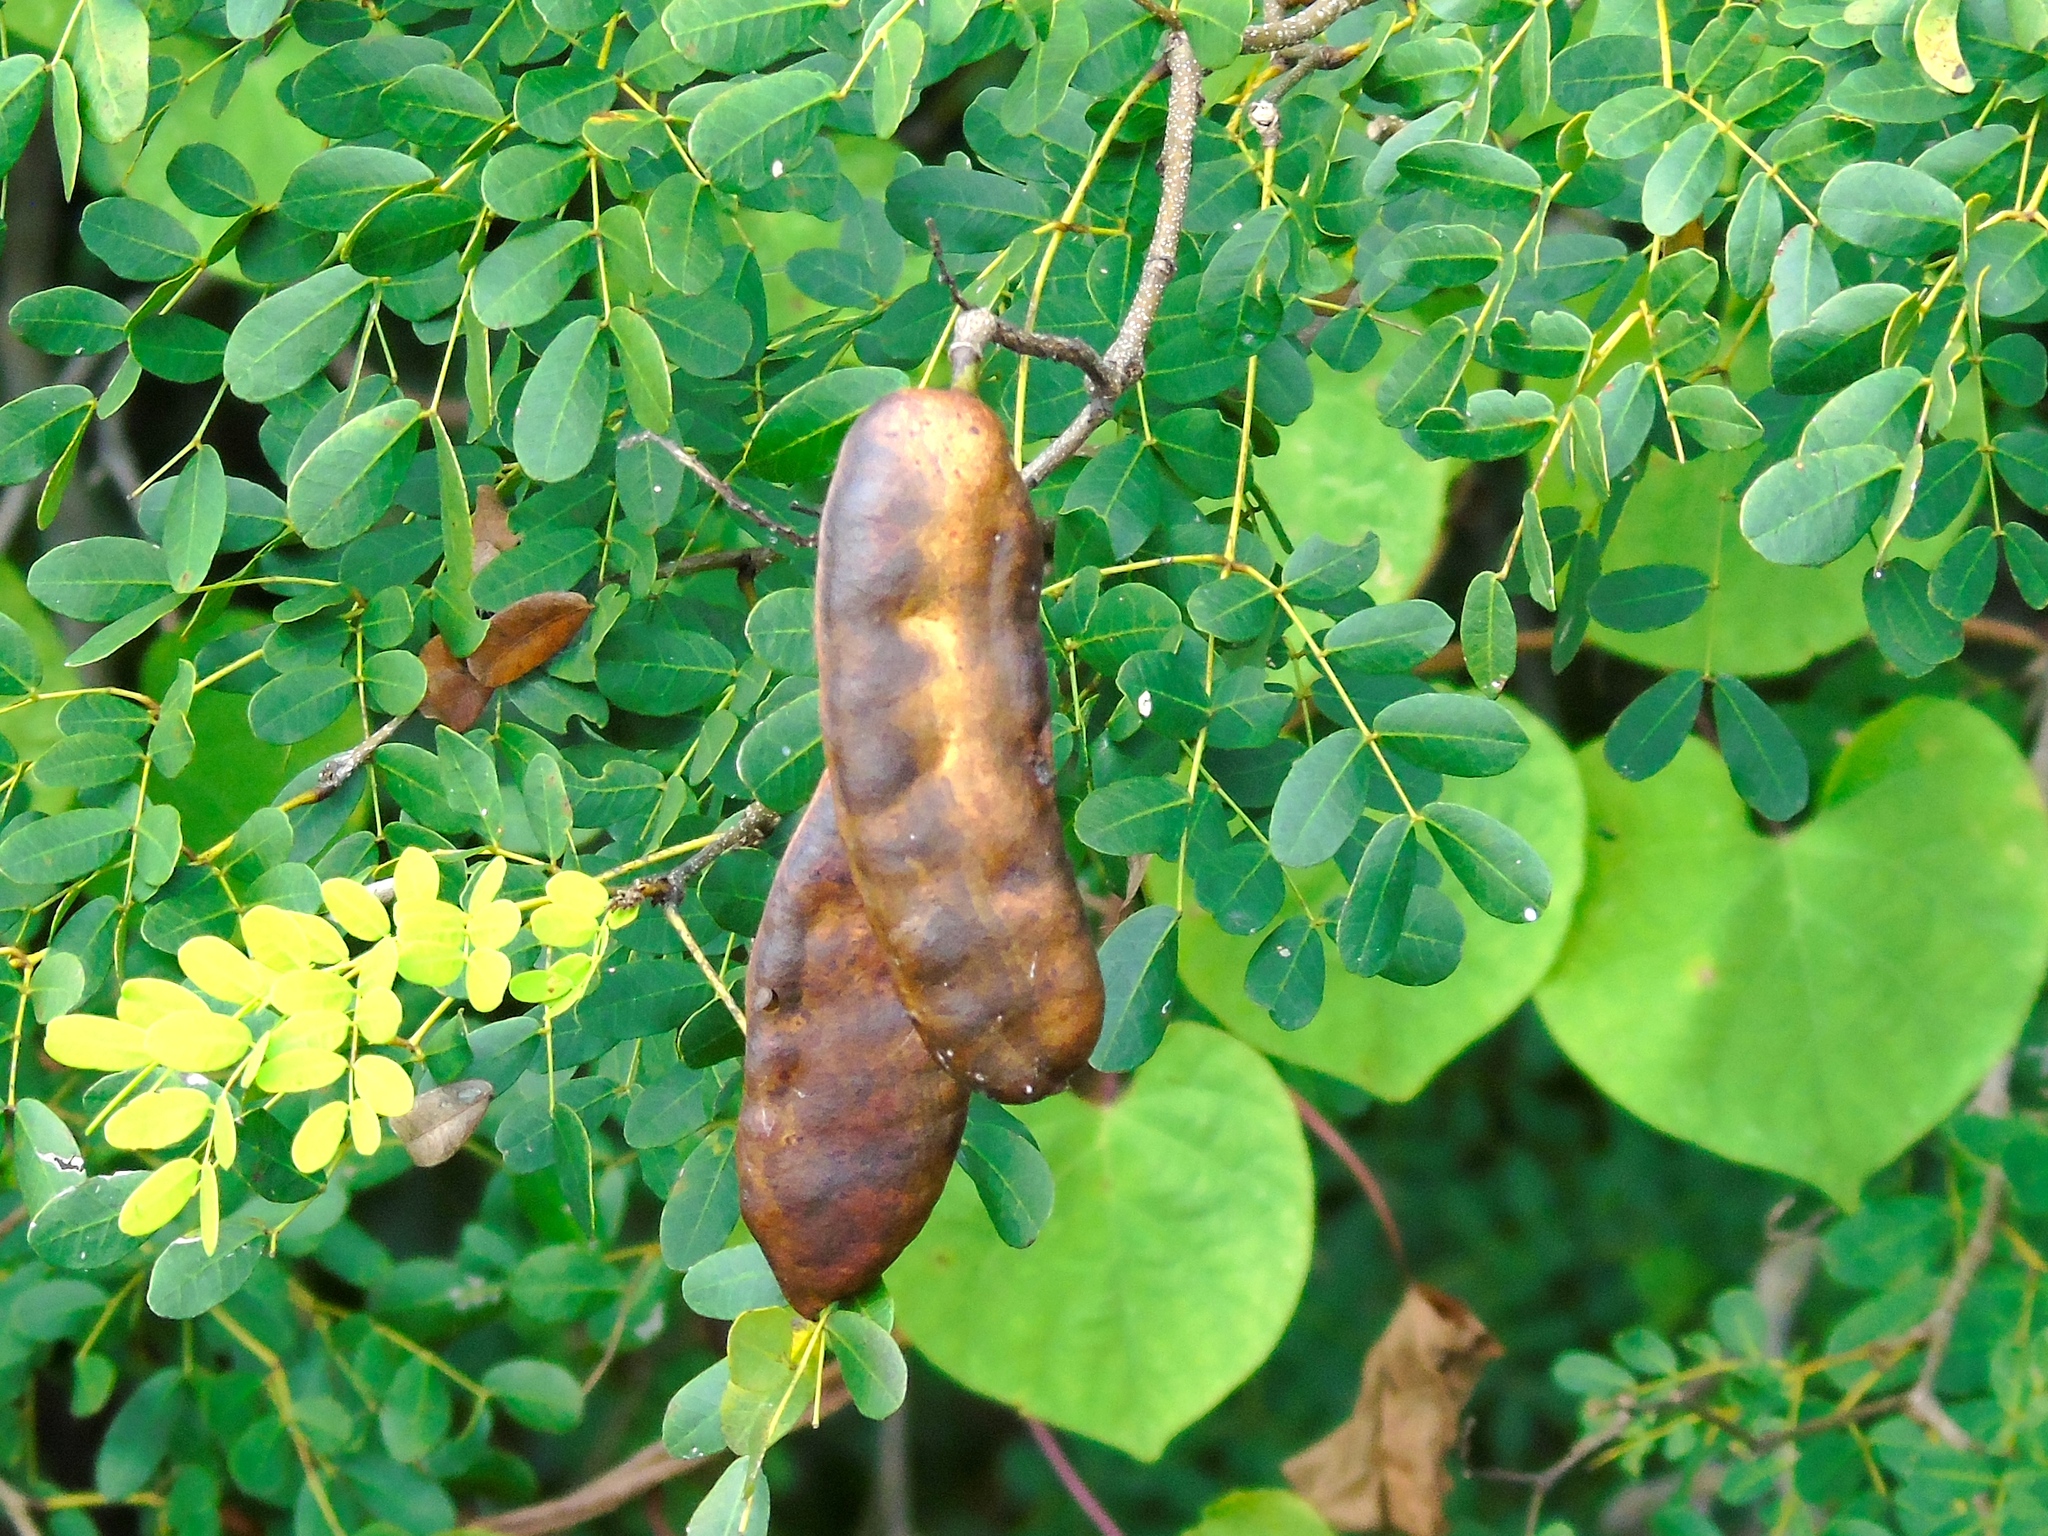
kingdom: Plantae
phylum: Tracheophyta
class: Magnoliopsida
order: Fabales
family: Fabaceae
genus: Libidibia
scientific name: Libidibia sclerocarpa
